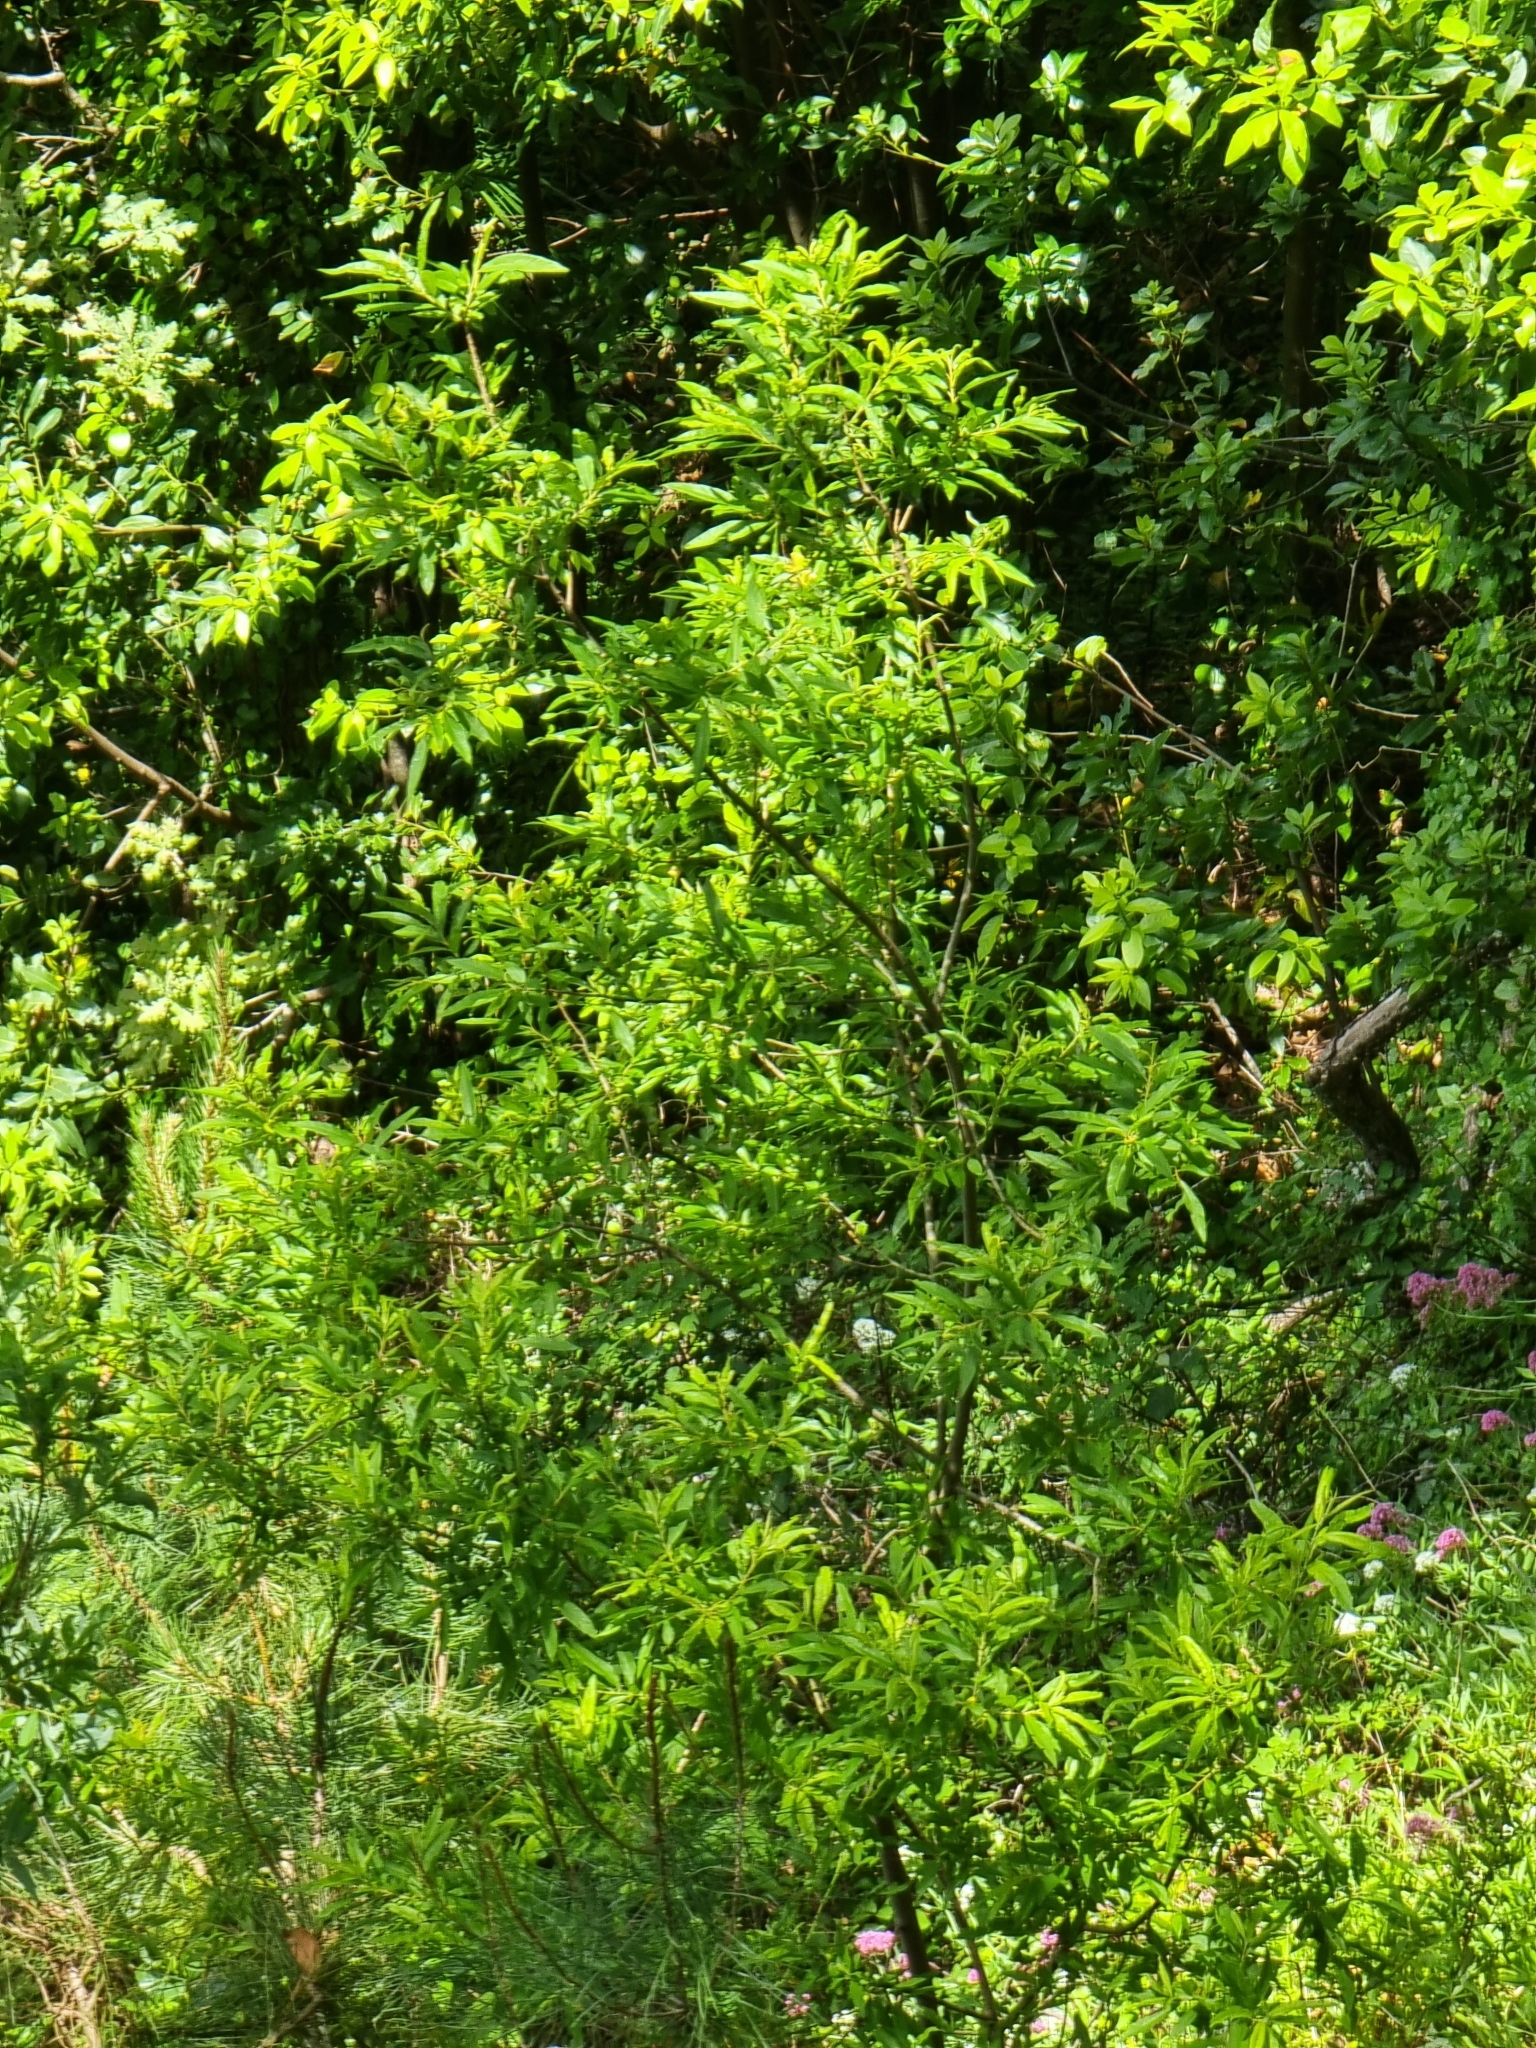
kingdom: Plantae
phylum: Tracheophyta
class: Magnoliopsida
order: Malpighiales
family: Salicaceae
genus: Salix
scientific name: Salix canariensis
